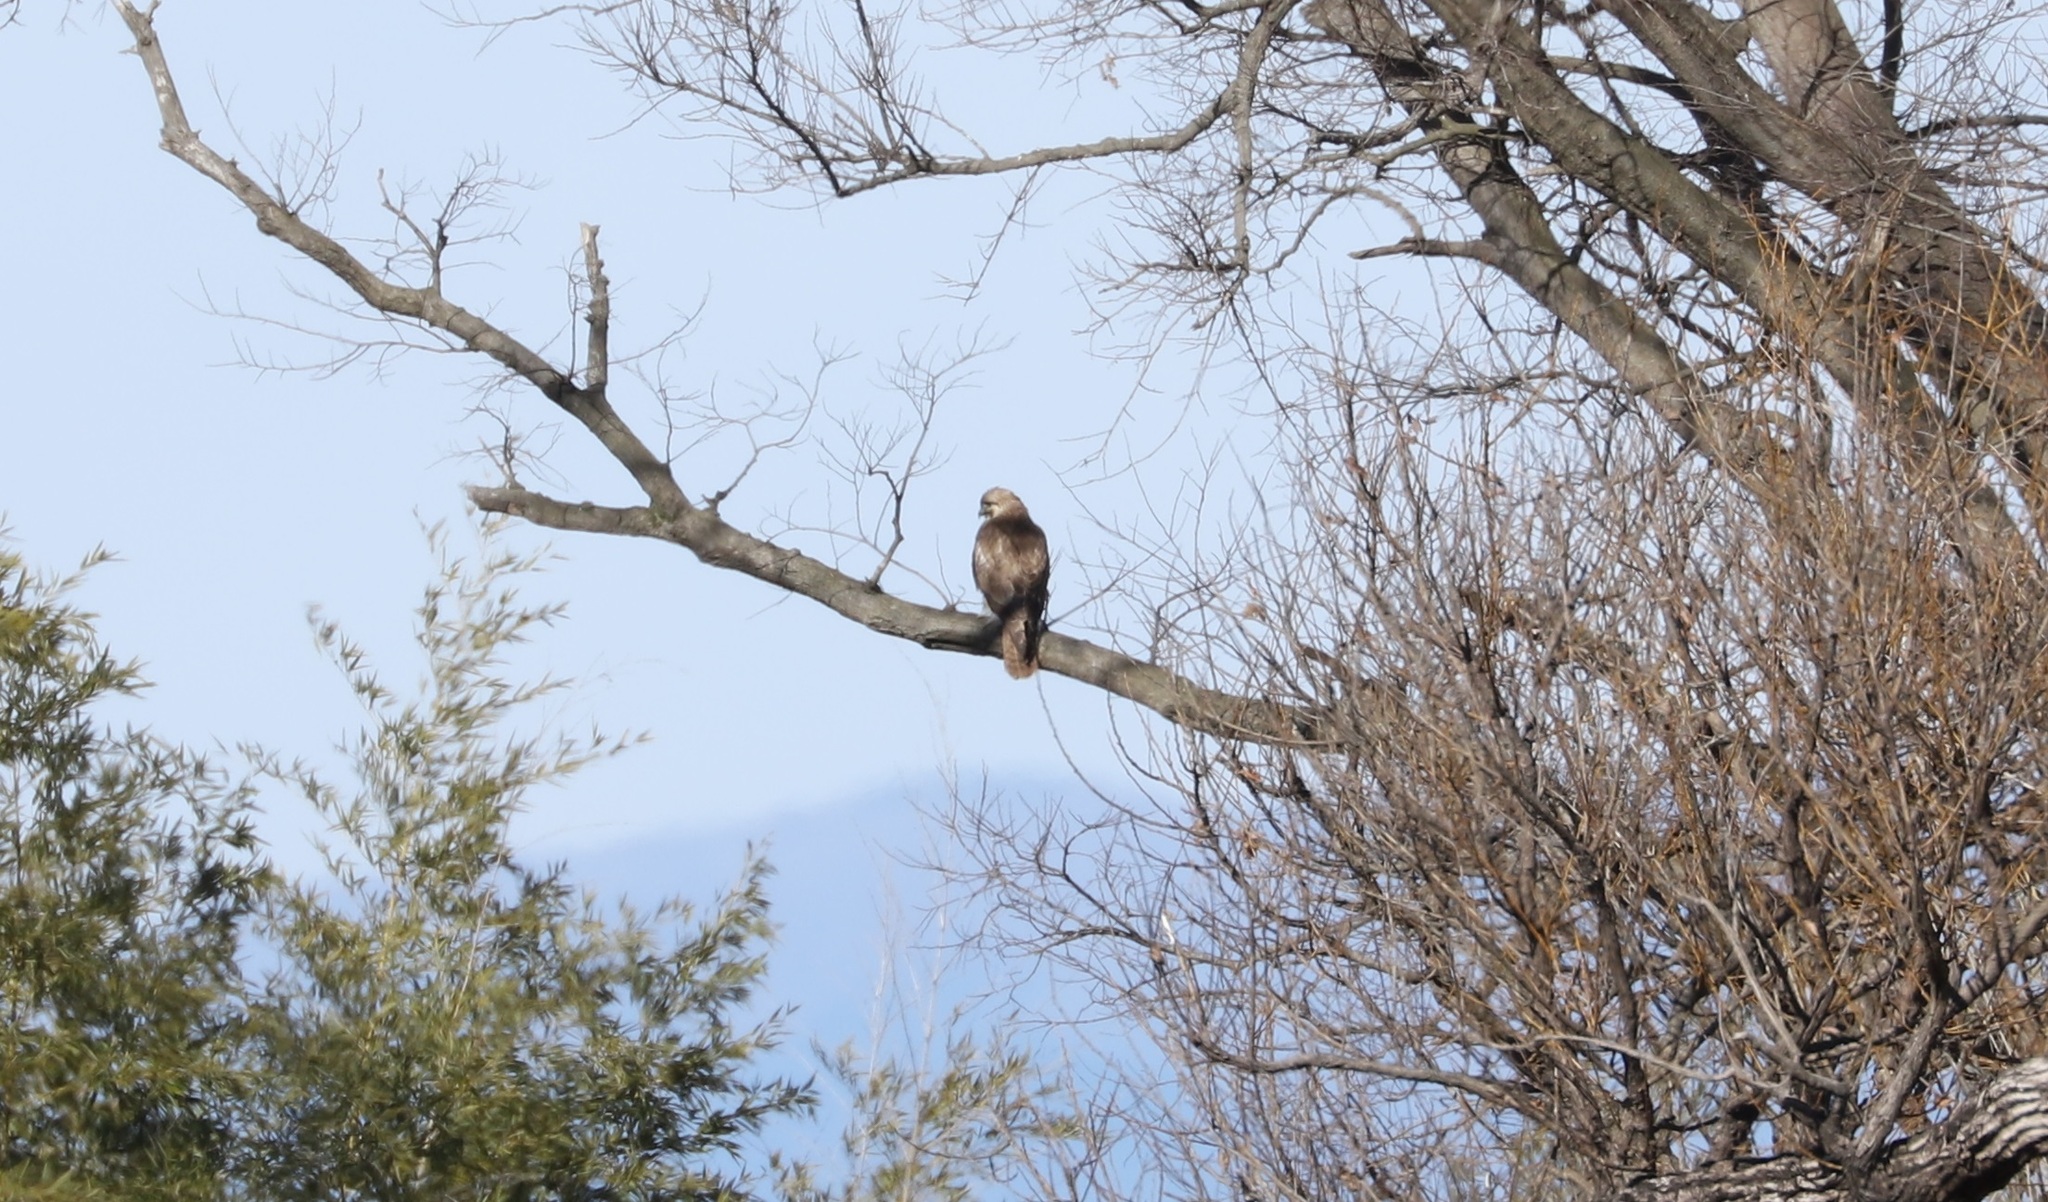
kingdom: Animalia
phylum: Chordata
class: Aves
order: Accipitriformes
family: Accipitridae
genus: Buteo
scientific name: Buteo japonicus
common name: Eastern buzzard
